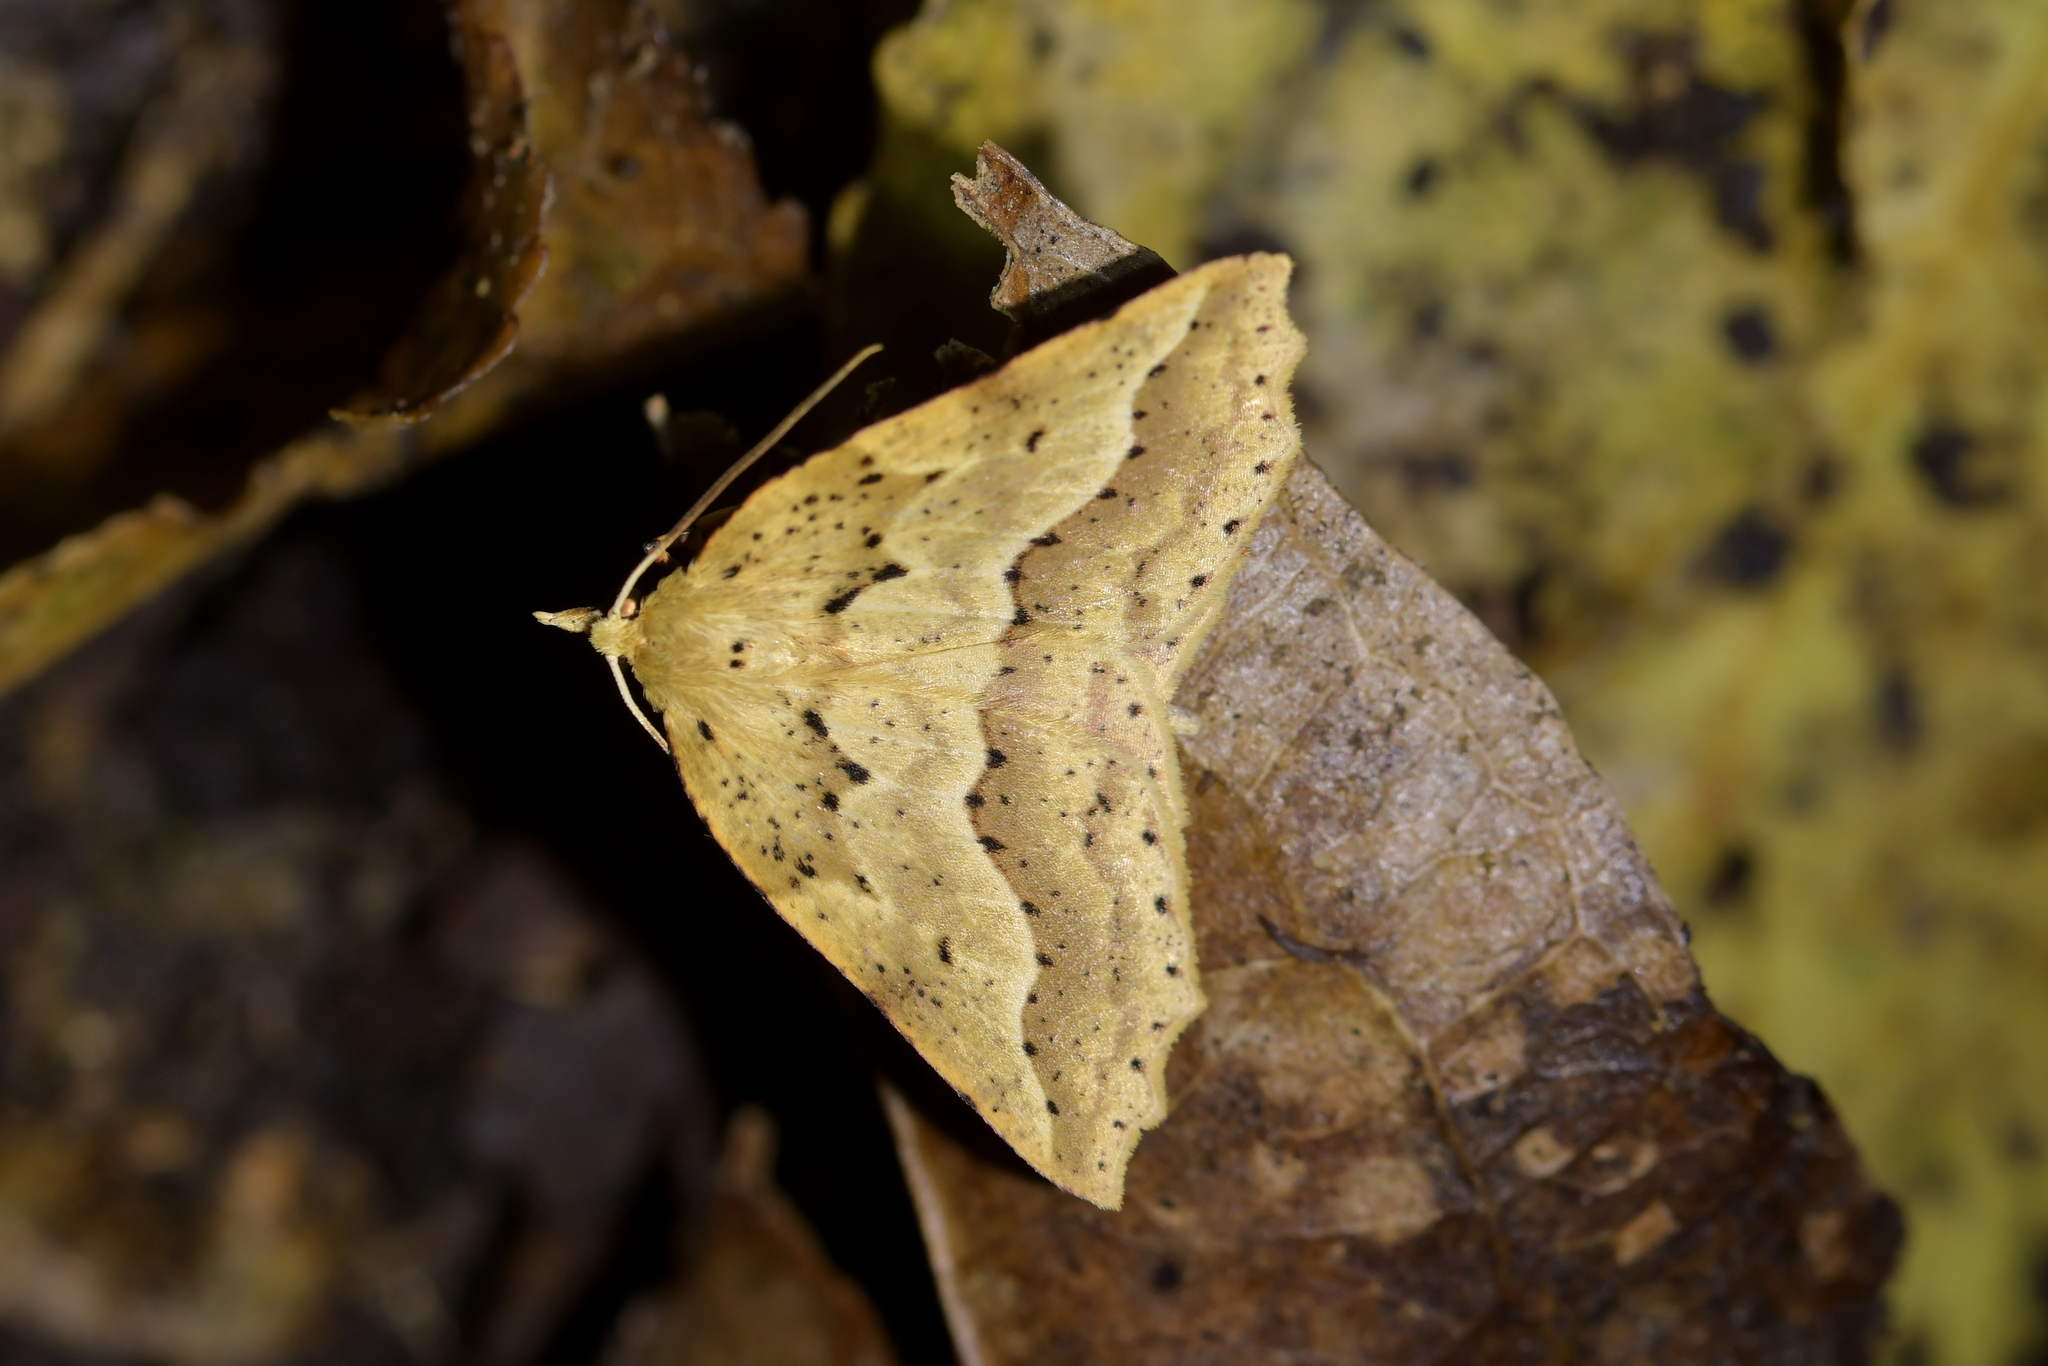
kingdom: Animalia
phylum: Arthropoda
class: Insecta
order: Lepidoptera
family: Geometridae
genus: Ischalis
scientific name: Ischalis variabilis
